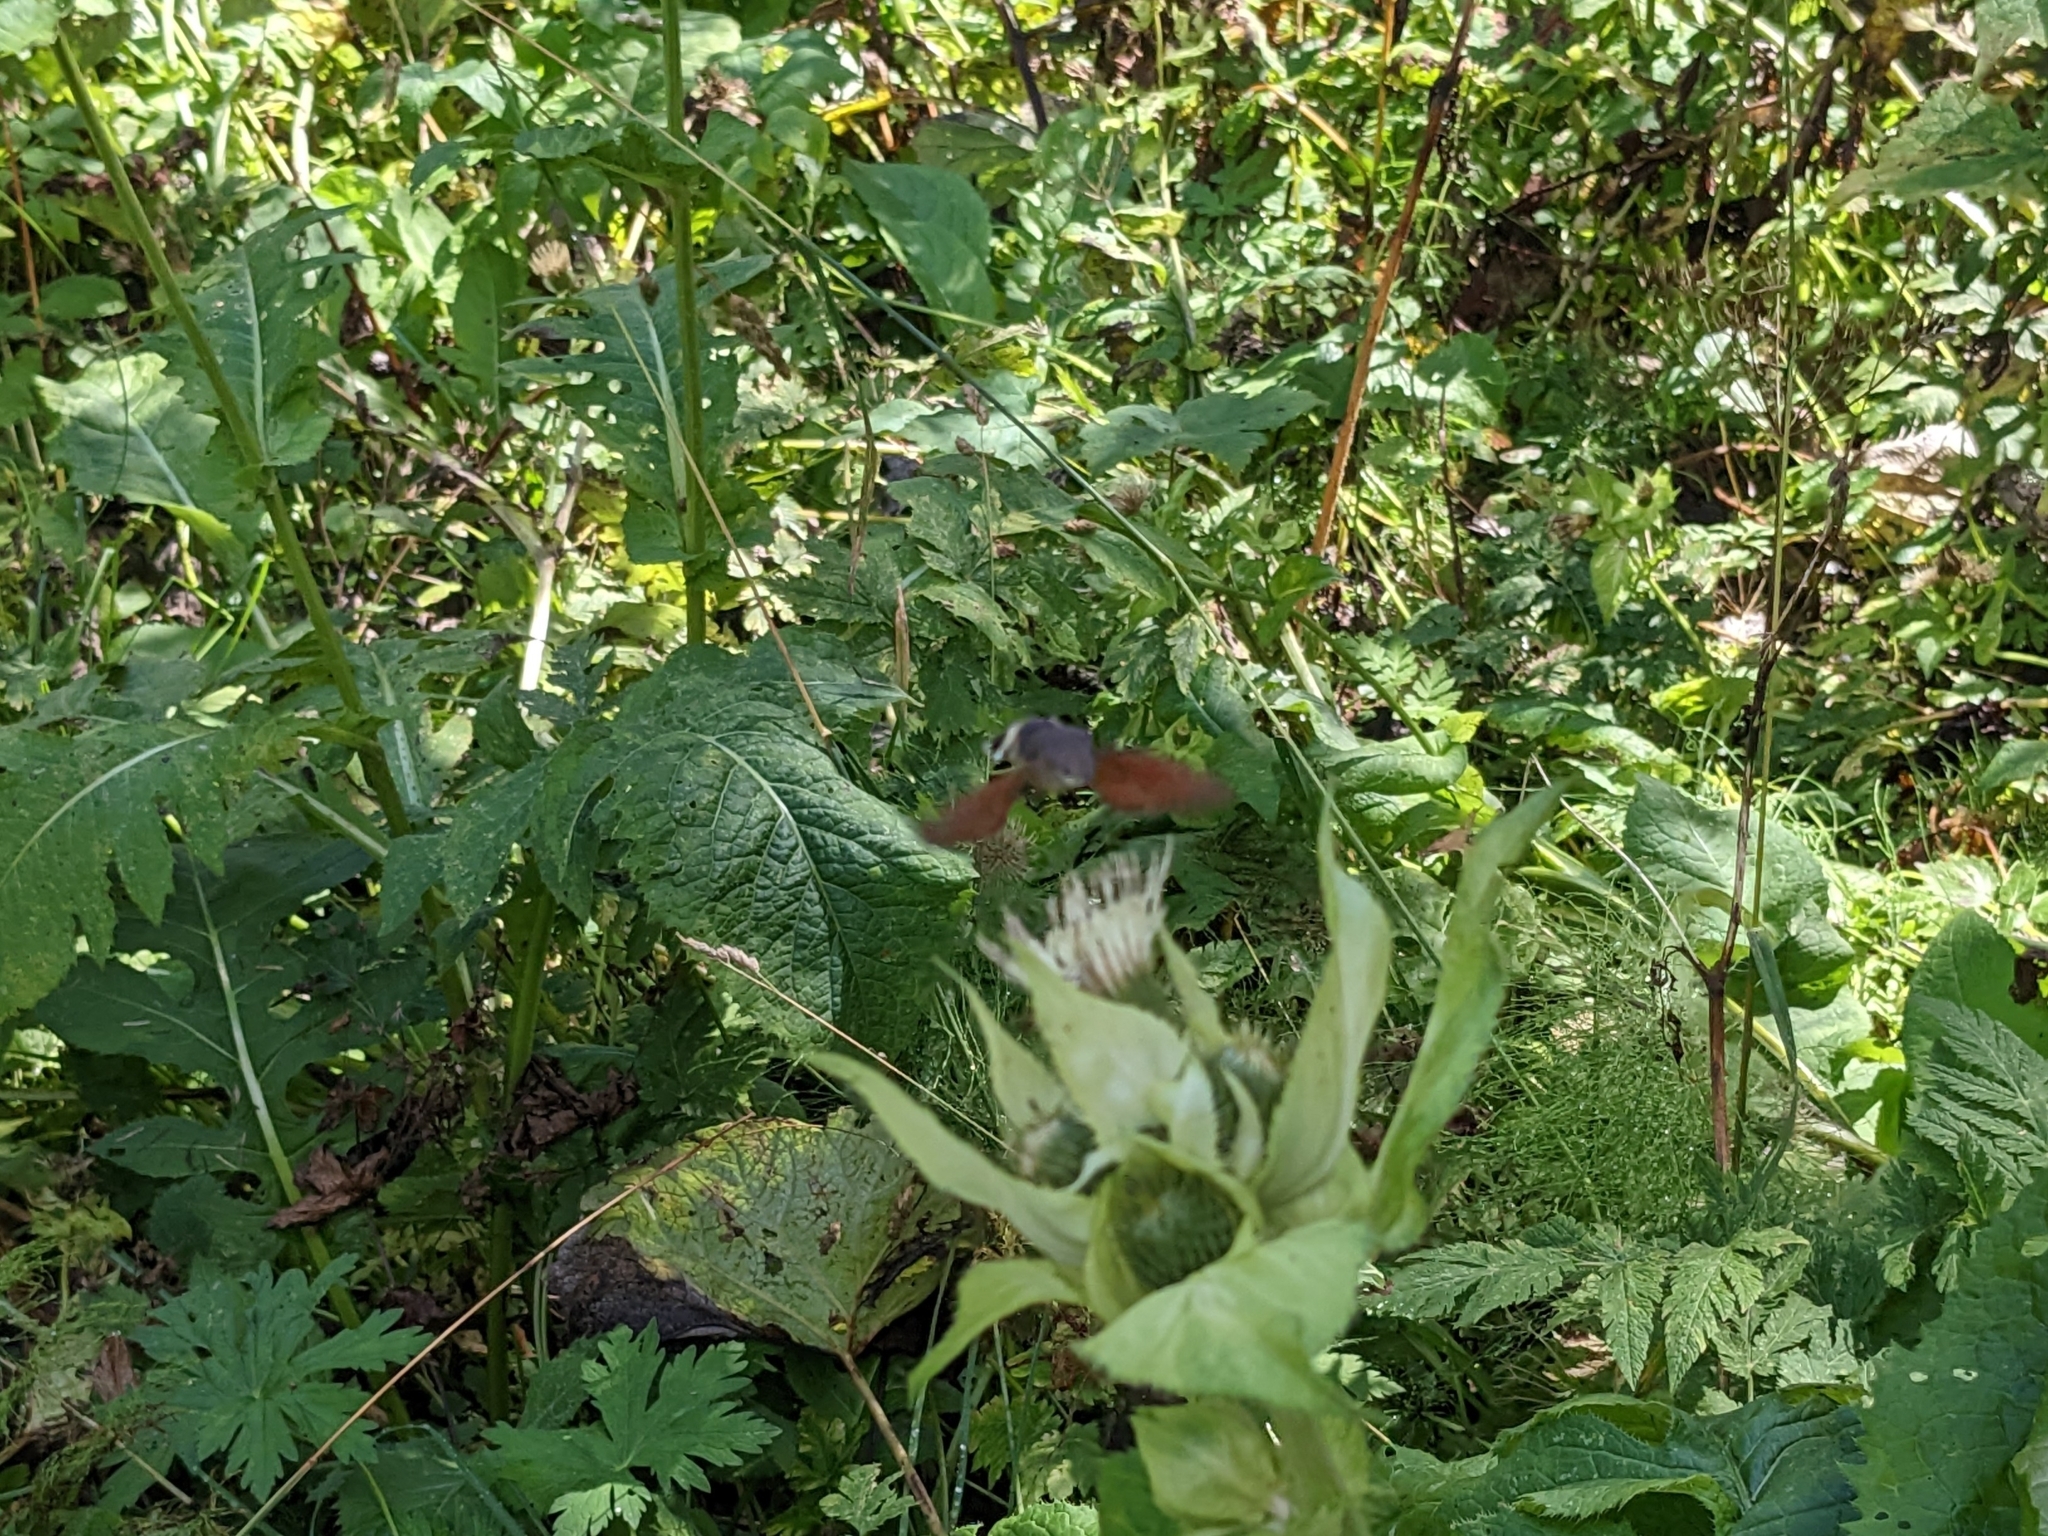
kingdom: Animalia
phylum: Arthropoda
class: Insecta
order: Lepidoptera
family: Sphingidae
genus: Macroglossum
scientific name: Macroglossum stellatarum
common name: Humming-bird hawk-moth
